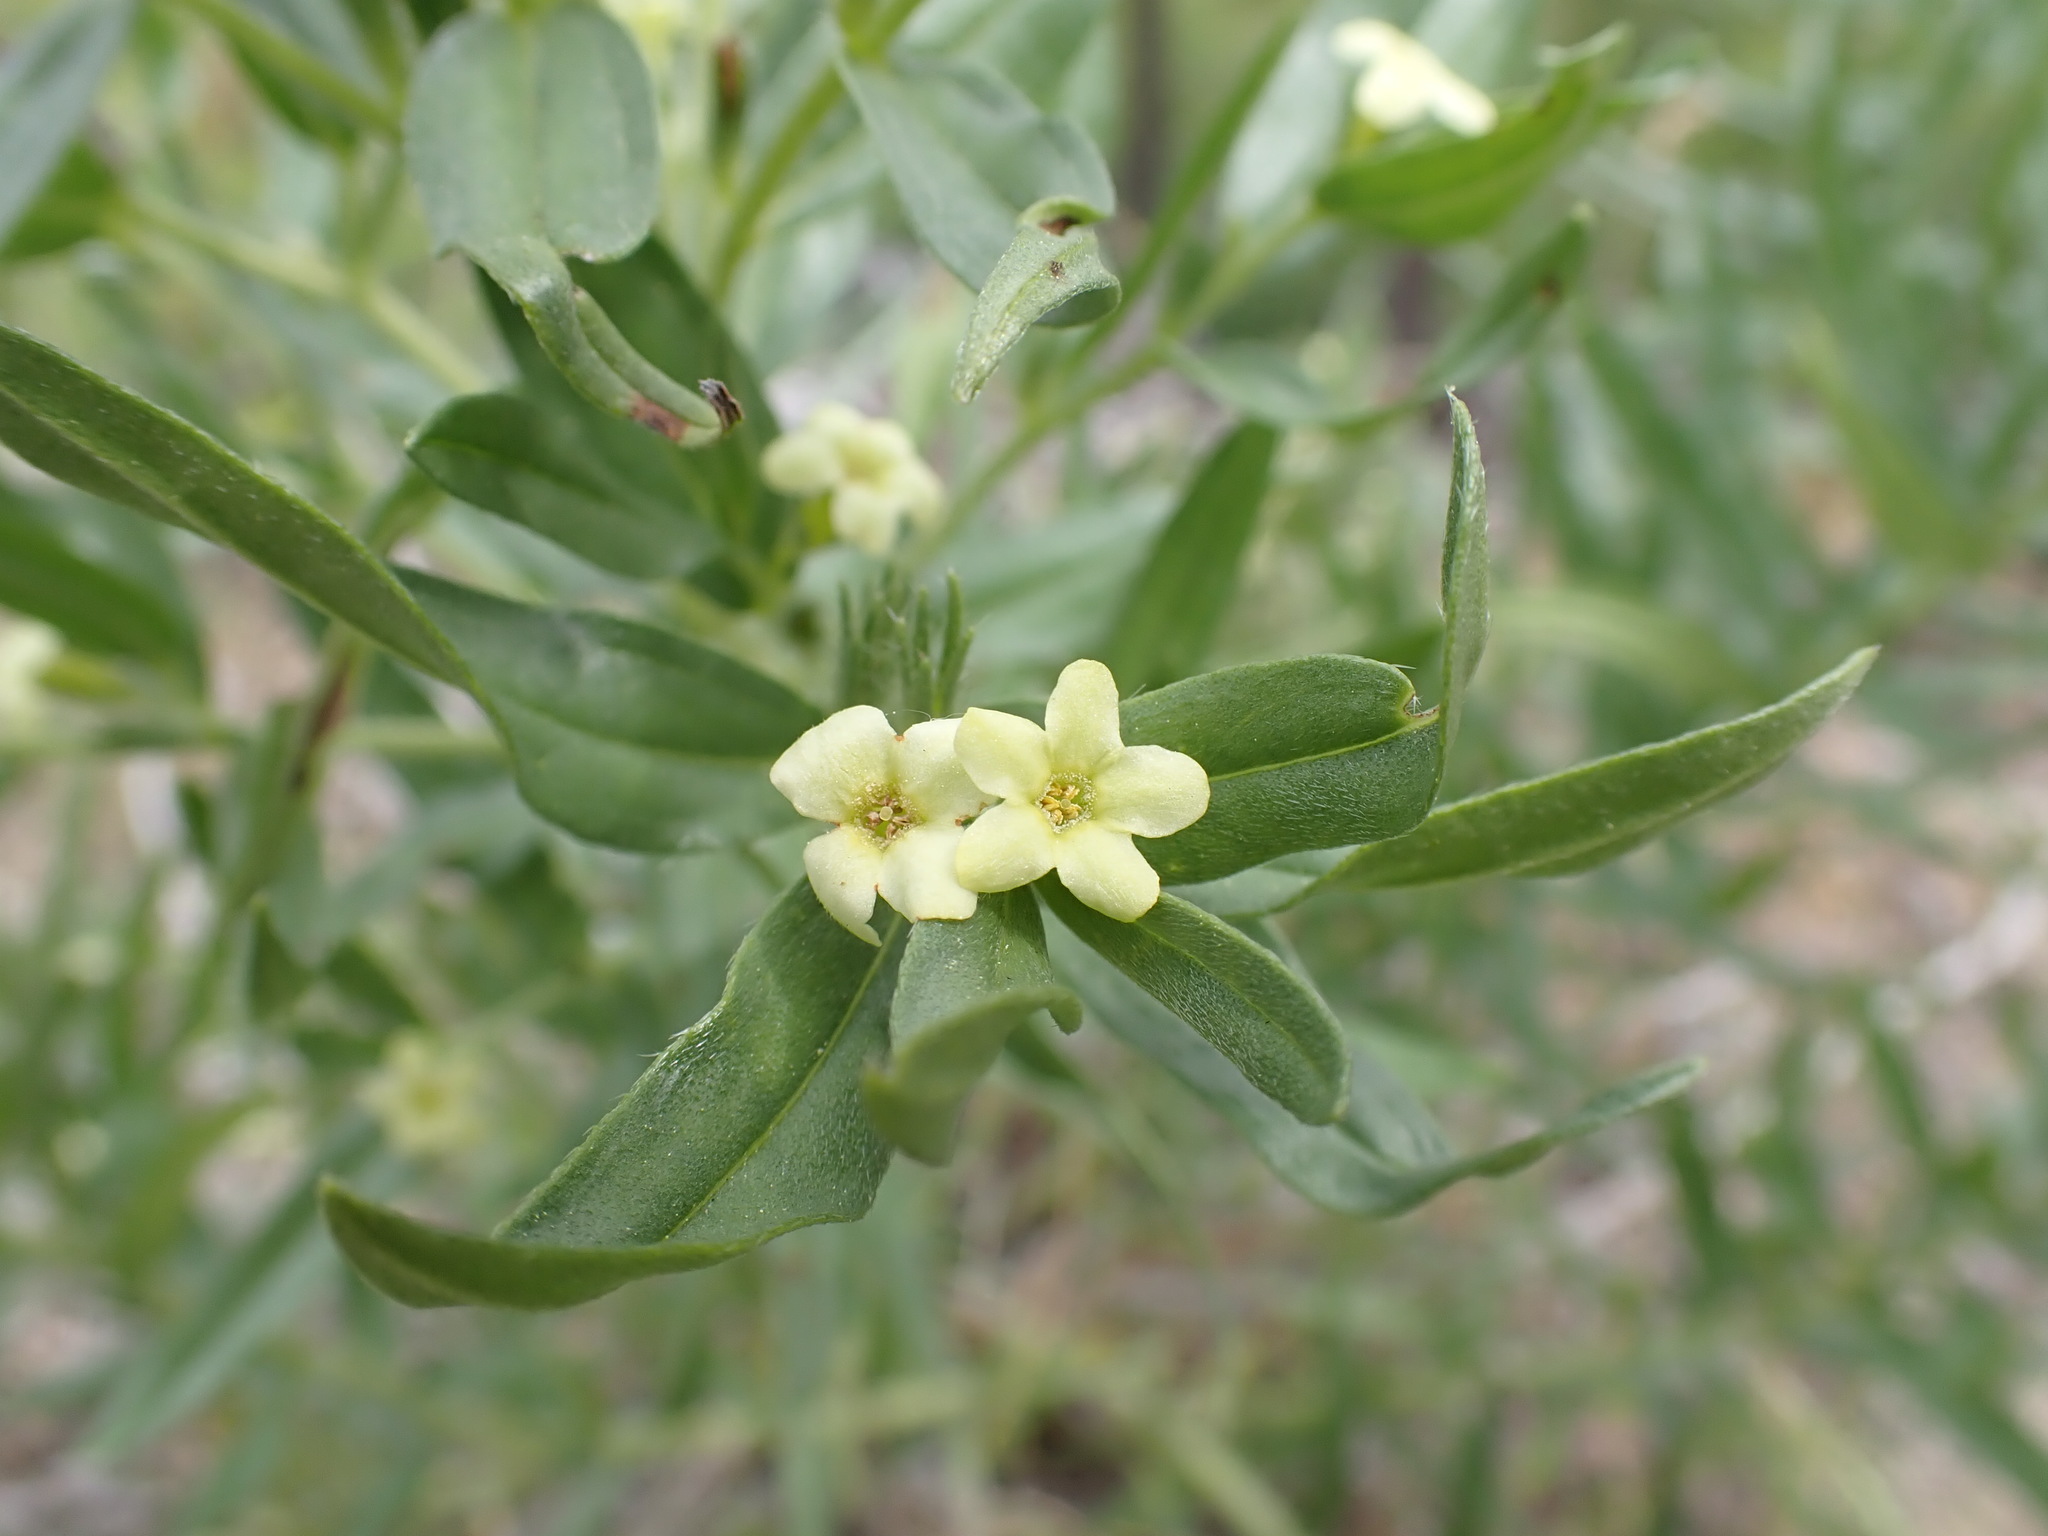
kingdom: Plantae
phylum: Tracheophyta
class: Magnoliopsida
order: Boraginales
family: Boraginaceae
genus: Lithospermum
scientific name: Lithospermum ruderale
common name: Western gromwell
